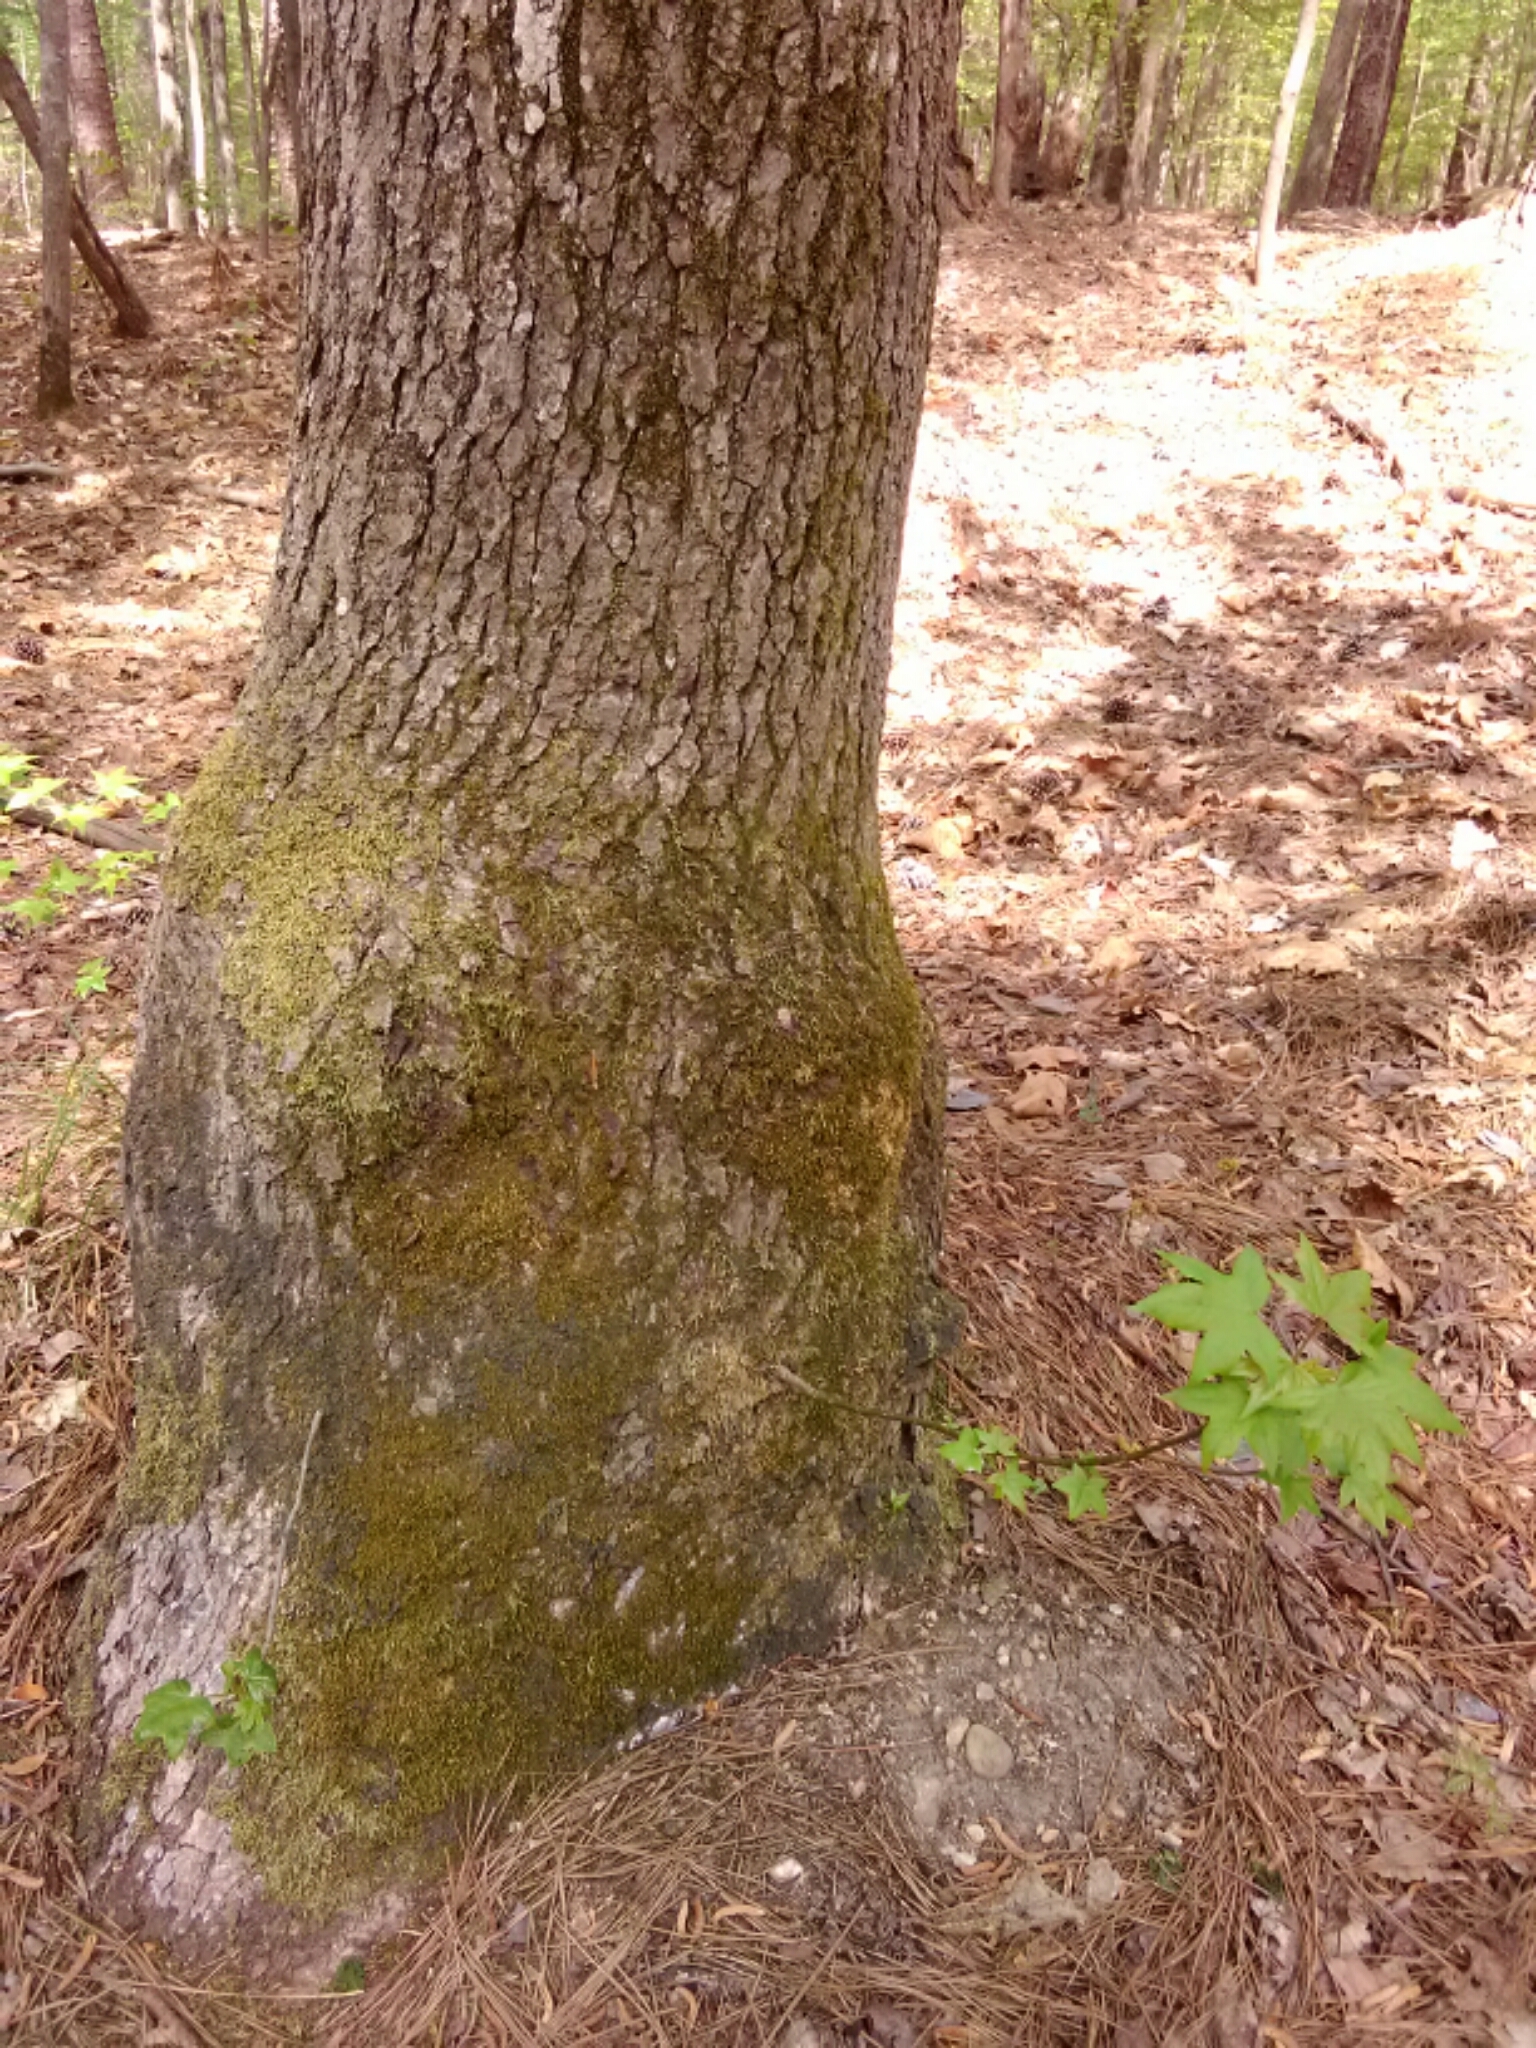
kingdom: Plantae
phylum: Tracheophyta
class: Magnoliopsida
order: Saxifragales
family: Altingiaceae
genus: Liquidambar
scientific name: Liquidambar styraciflua
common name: Sweet gum
